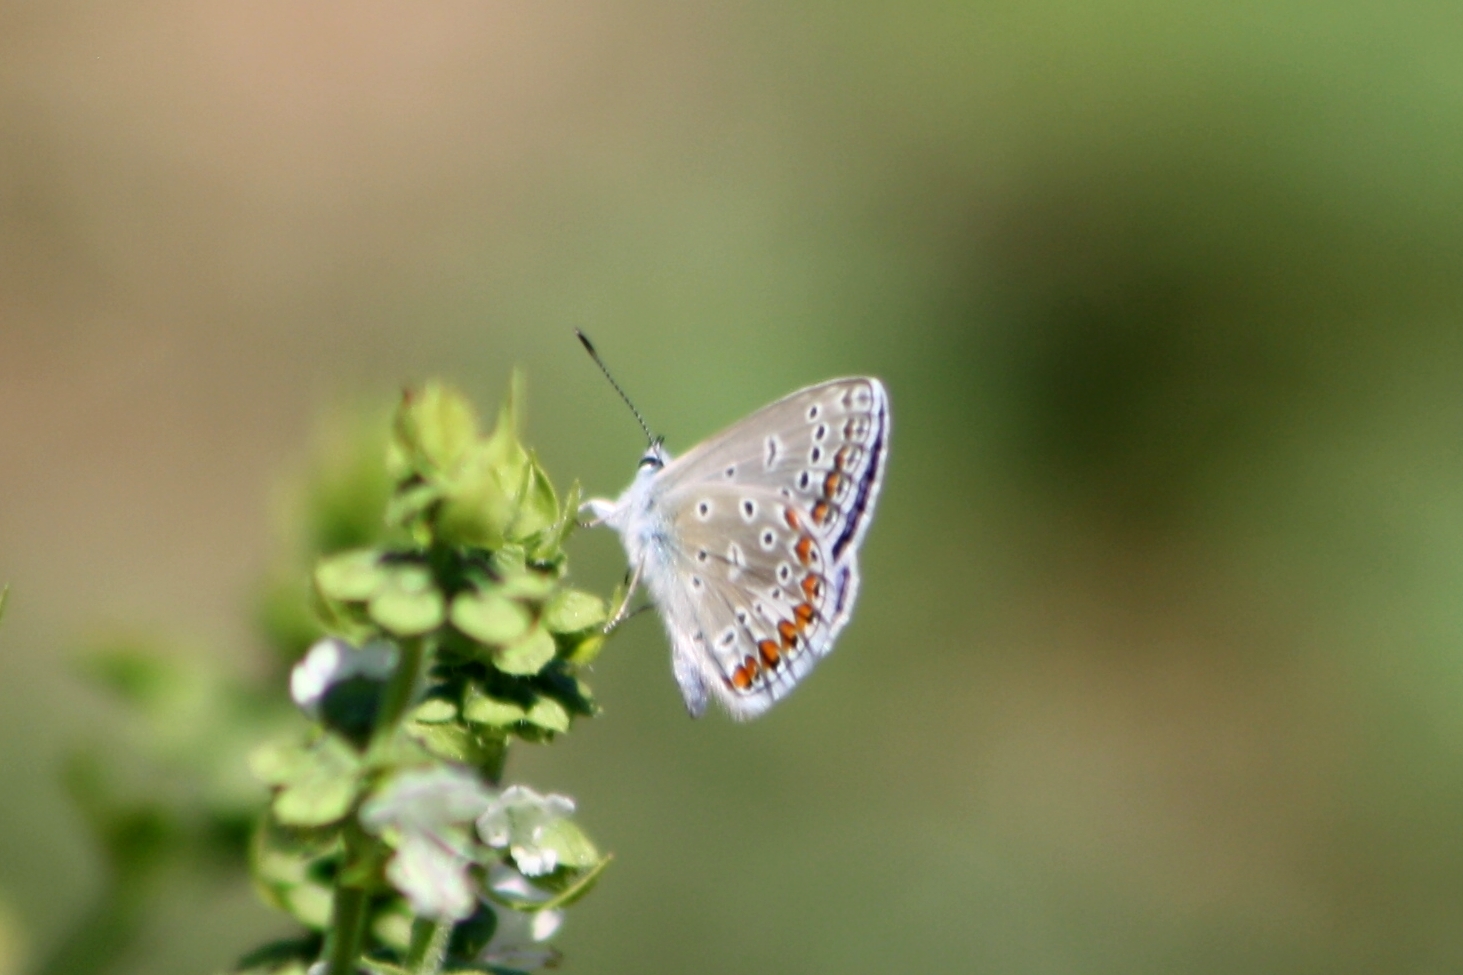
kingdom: Animalia
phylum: Arthropoda
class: Insecta
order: Lepidoptera
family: Lycaenidae
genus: Polyommatus
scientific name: Polyommatus icarus
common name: Common blue
